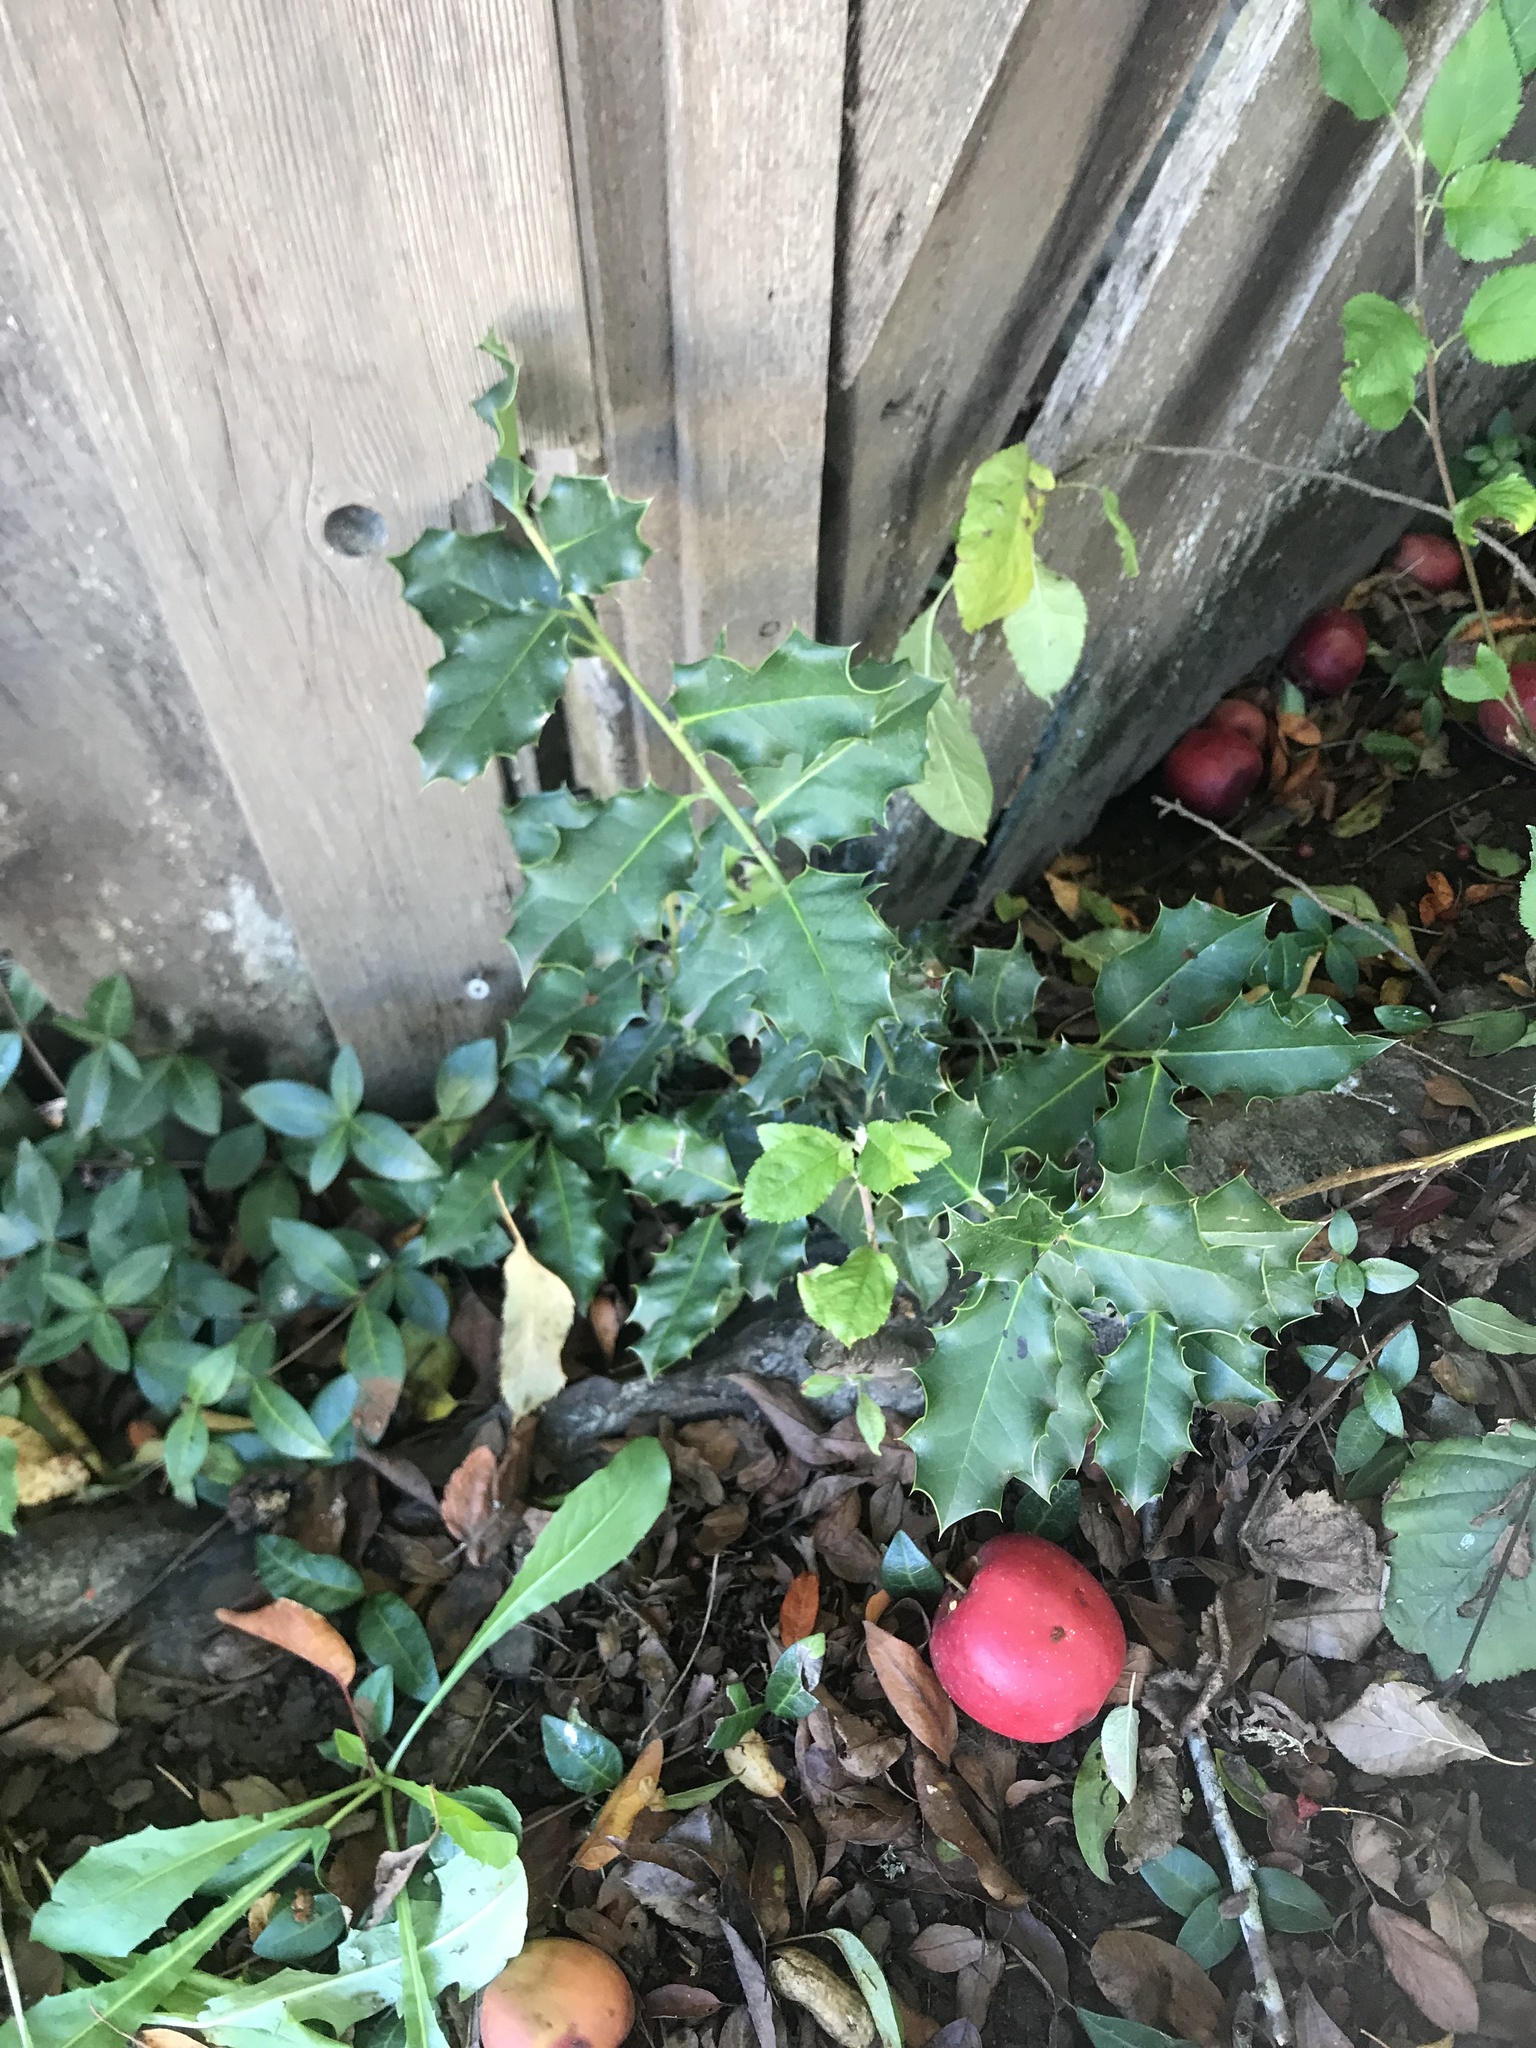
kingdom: Plantae
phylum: Tracheophyta
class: Magnoliopsida
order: Aquifoliales
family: Aquifoliaceae
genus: Ilex
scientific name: Ilex aquifolium
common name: English holly
